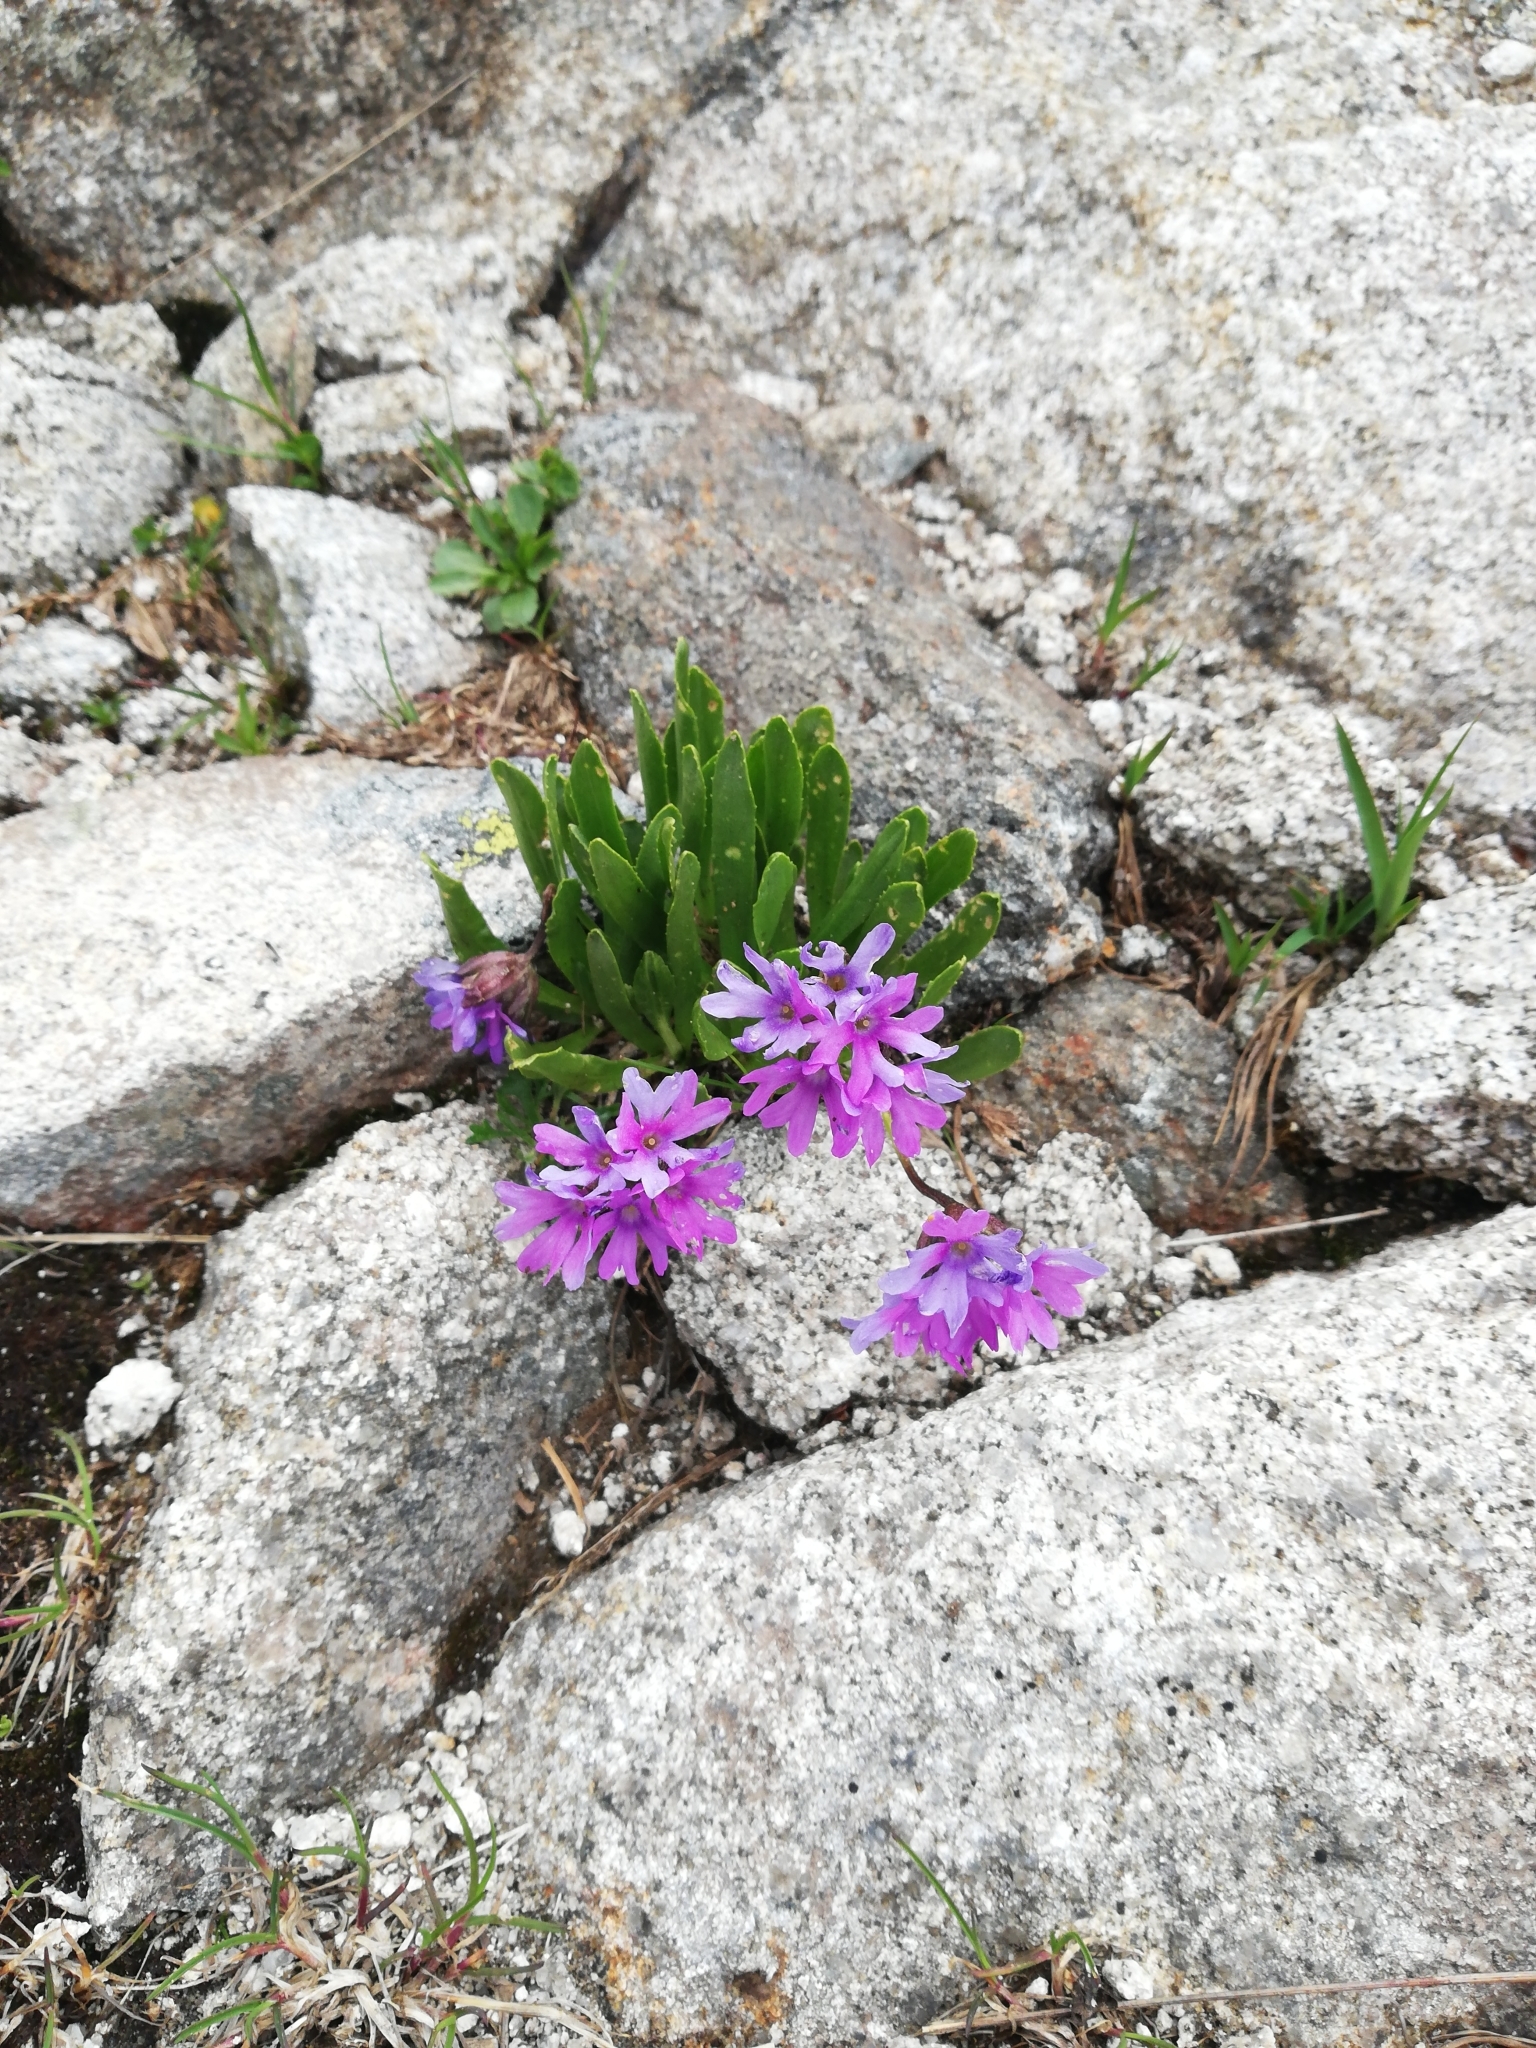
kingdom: Plantae
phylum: Tracheophyta
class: Magnoliopsida
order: Ericales
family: Primulaceae
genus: Primula
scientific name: Primula glutinosa
